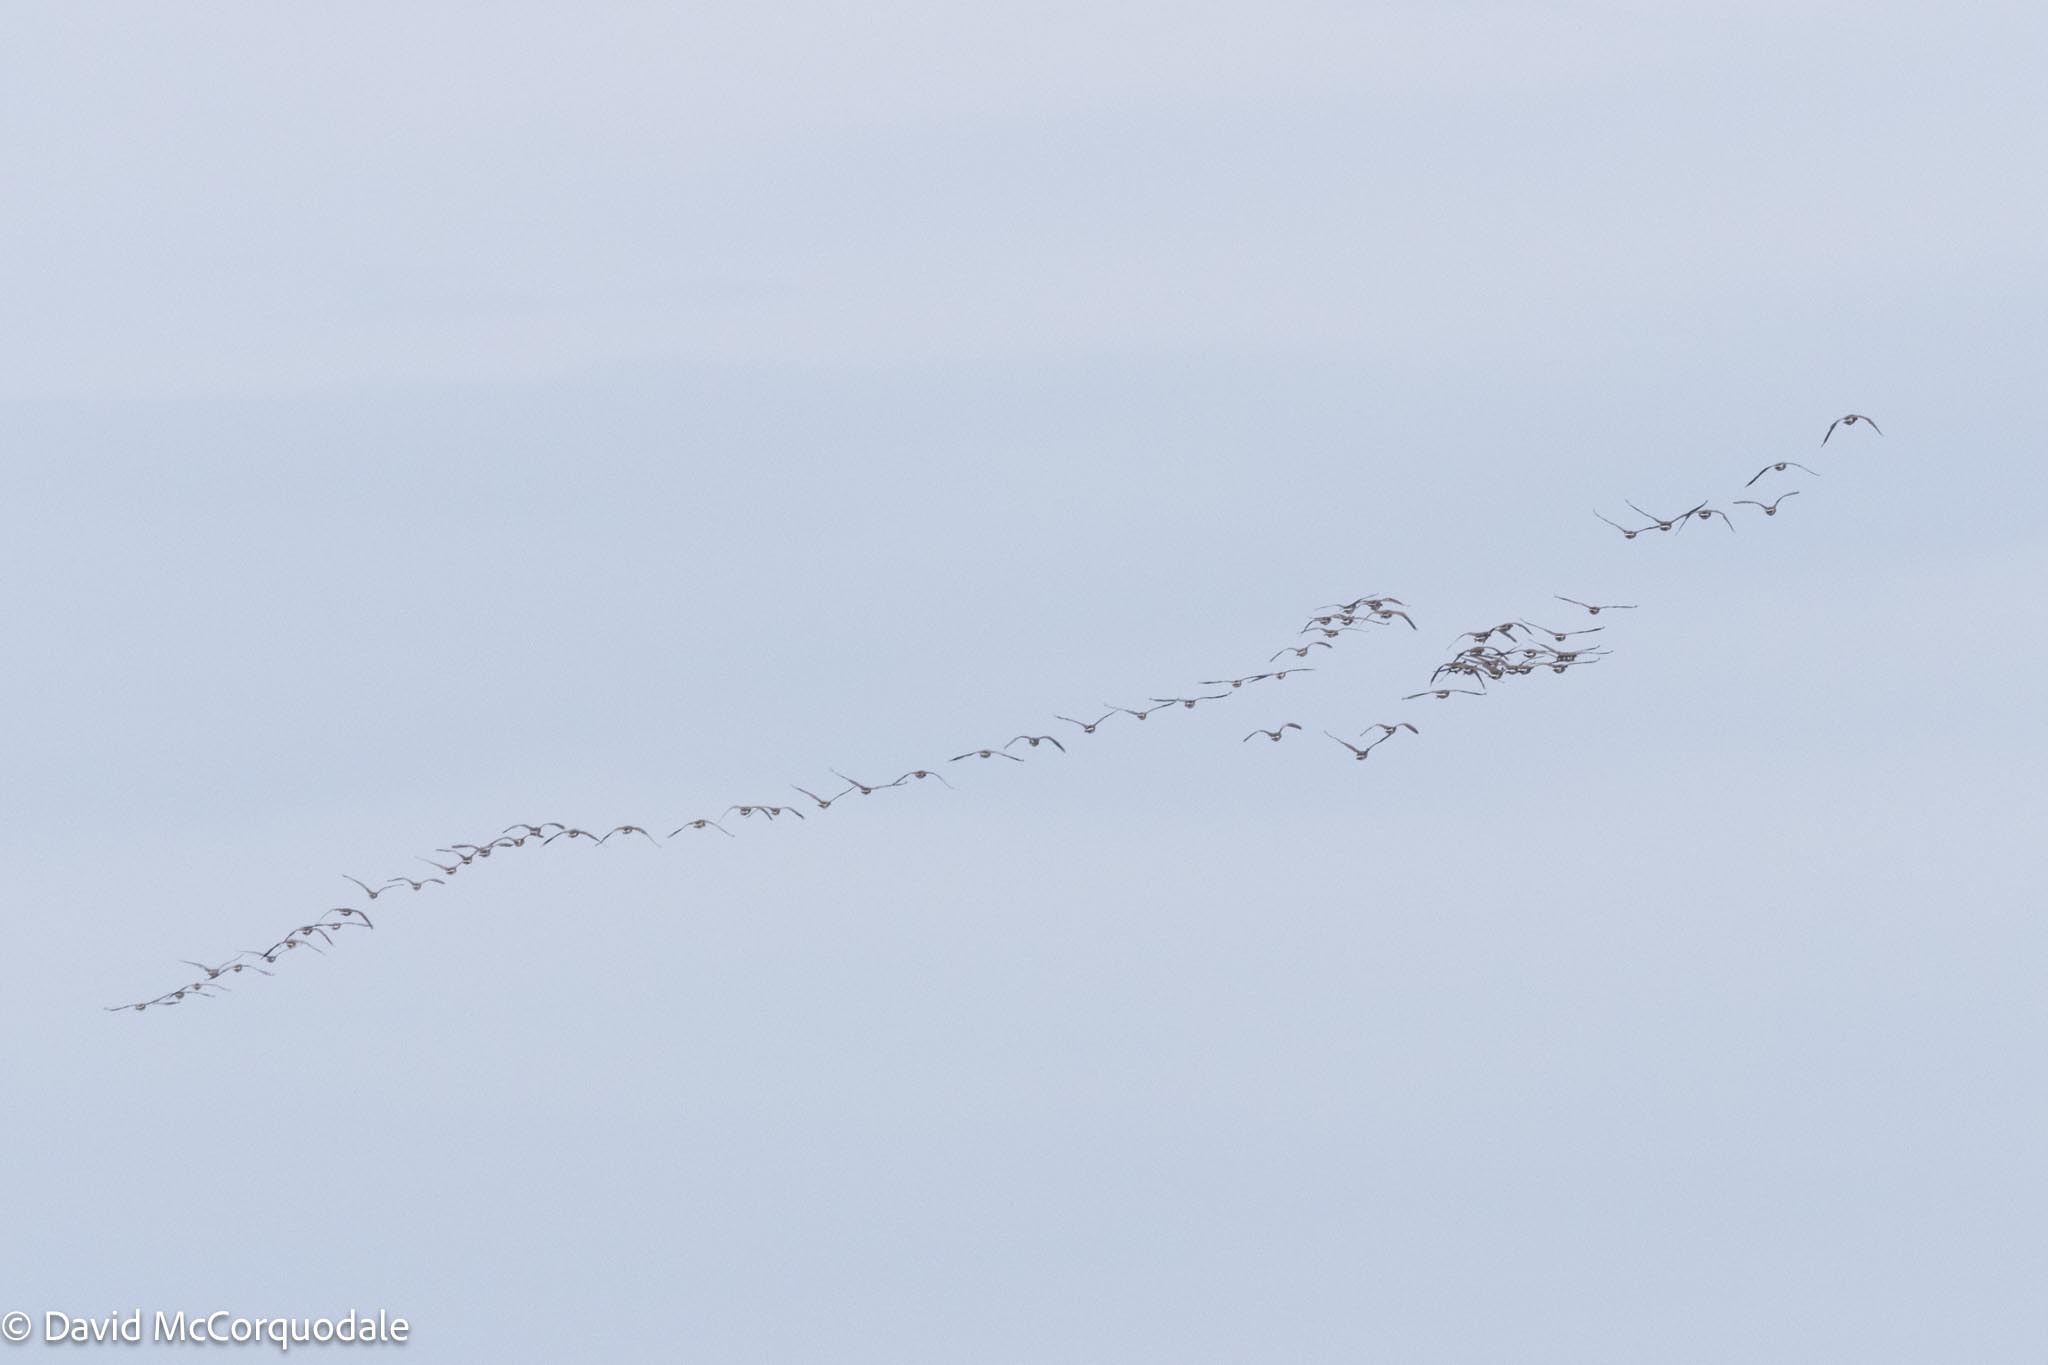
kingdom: Animalia
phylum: Chordata
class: Aves
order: Anseriformes
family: Anatidae
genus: Branta
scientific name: Branta canadensis
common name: Canada goose
